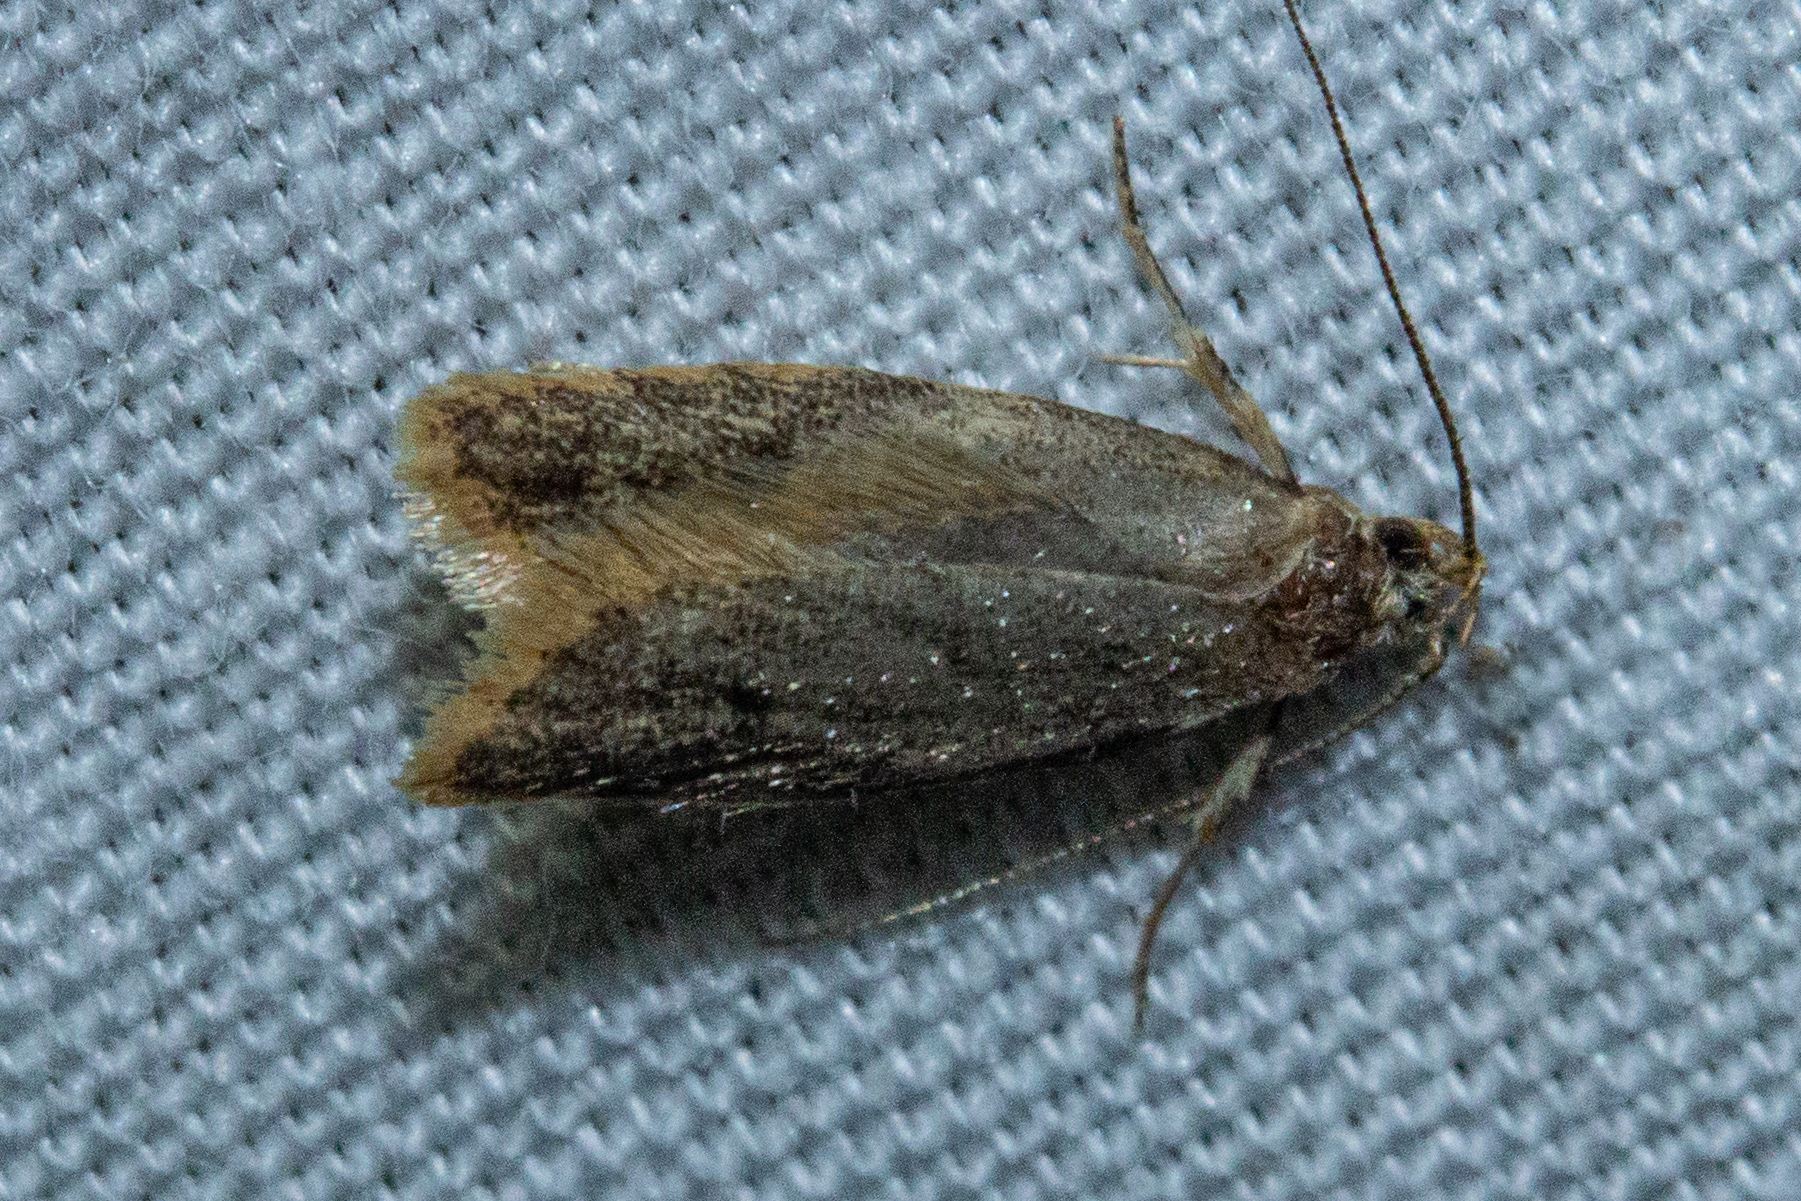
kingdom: Animalia
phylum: Arthropoda
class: Insecta
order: Lepidoptera
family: Oecophoridae
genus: Gymnobathra
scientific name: Gymnobathra tholodella
